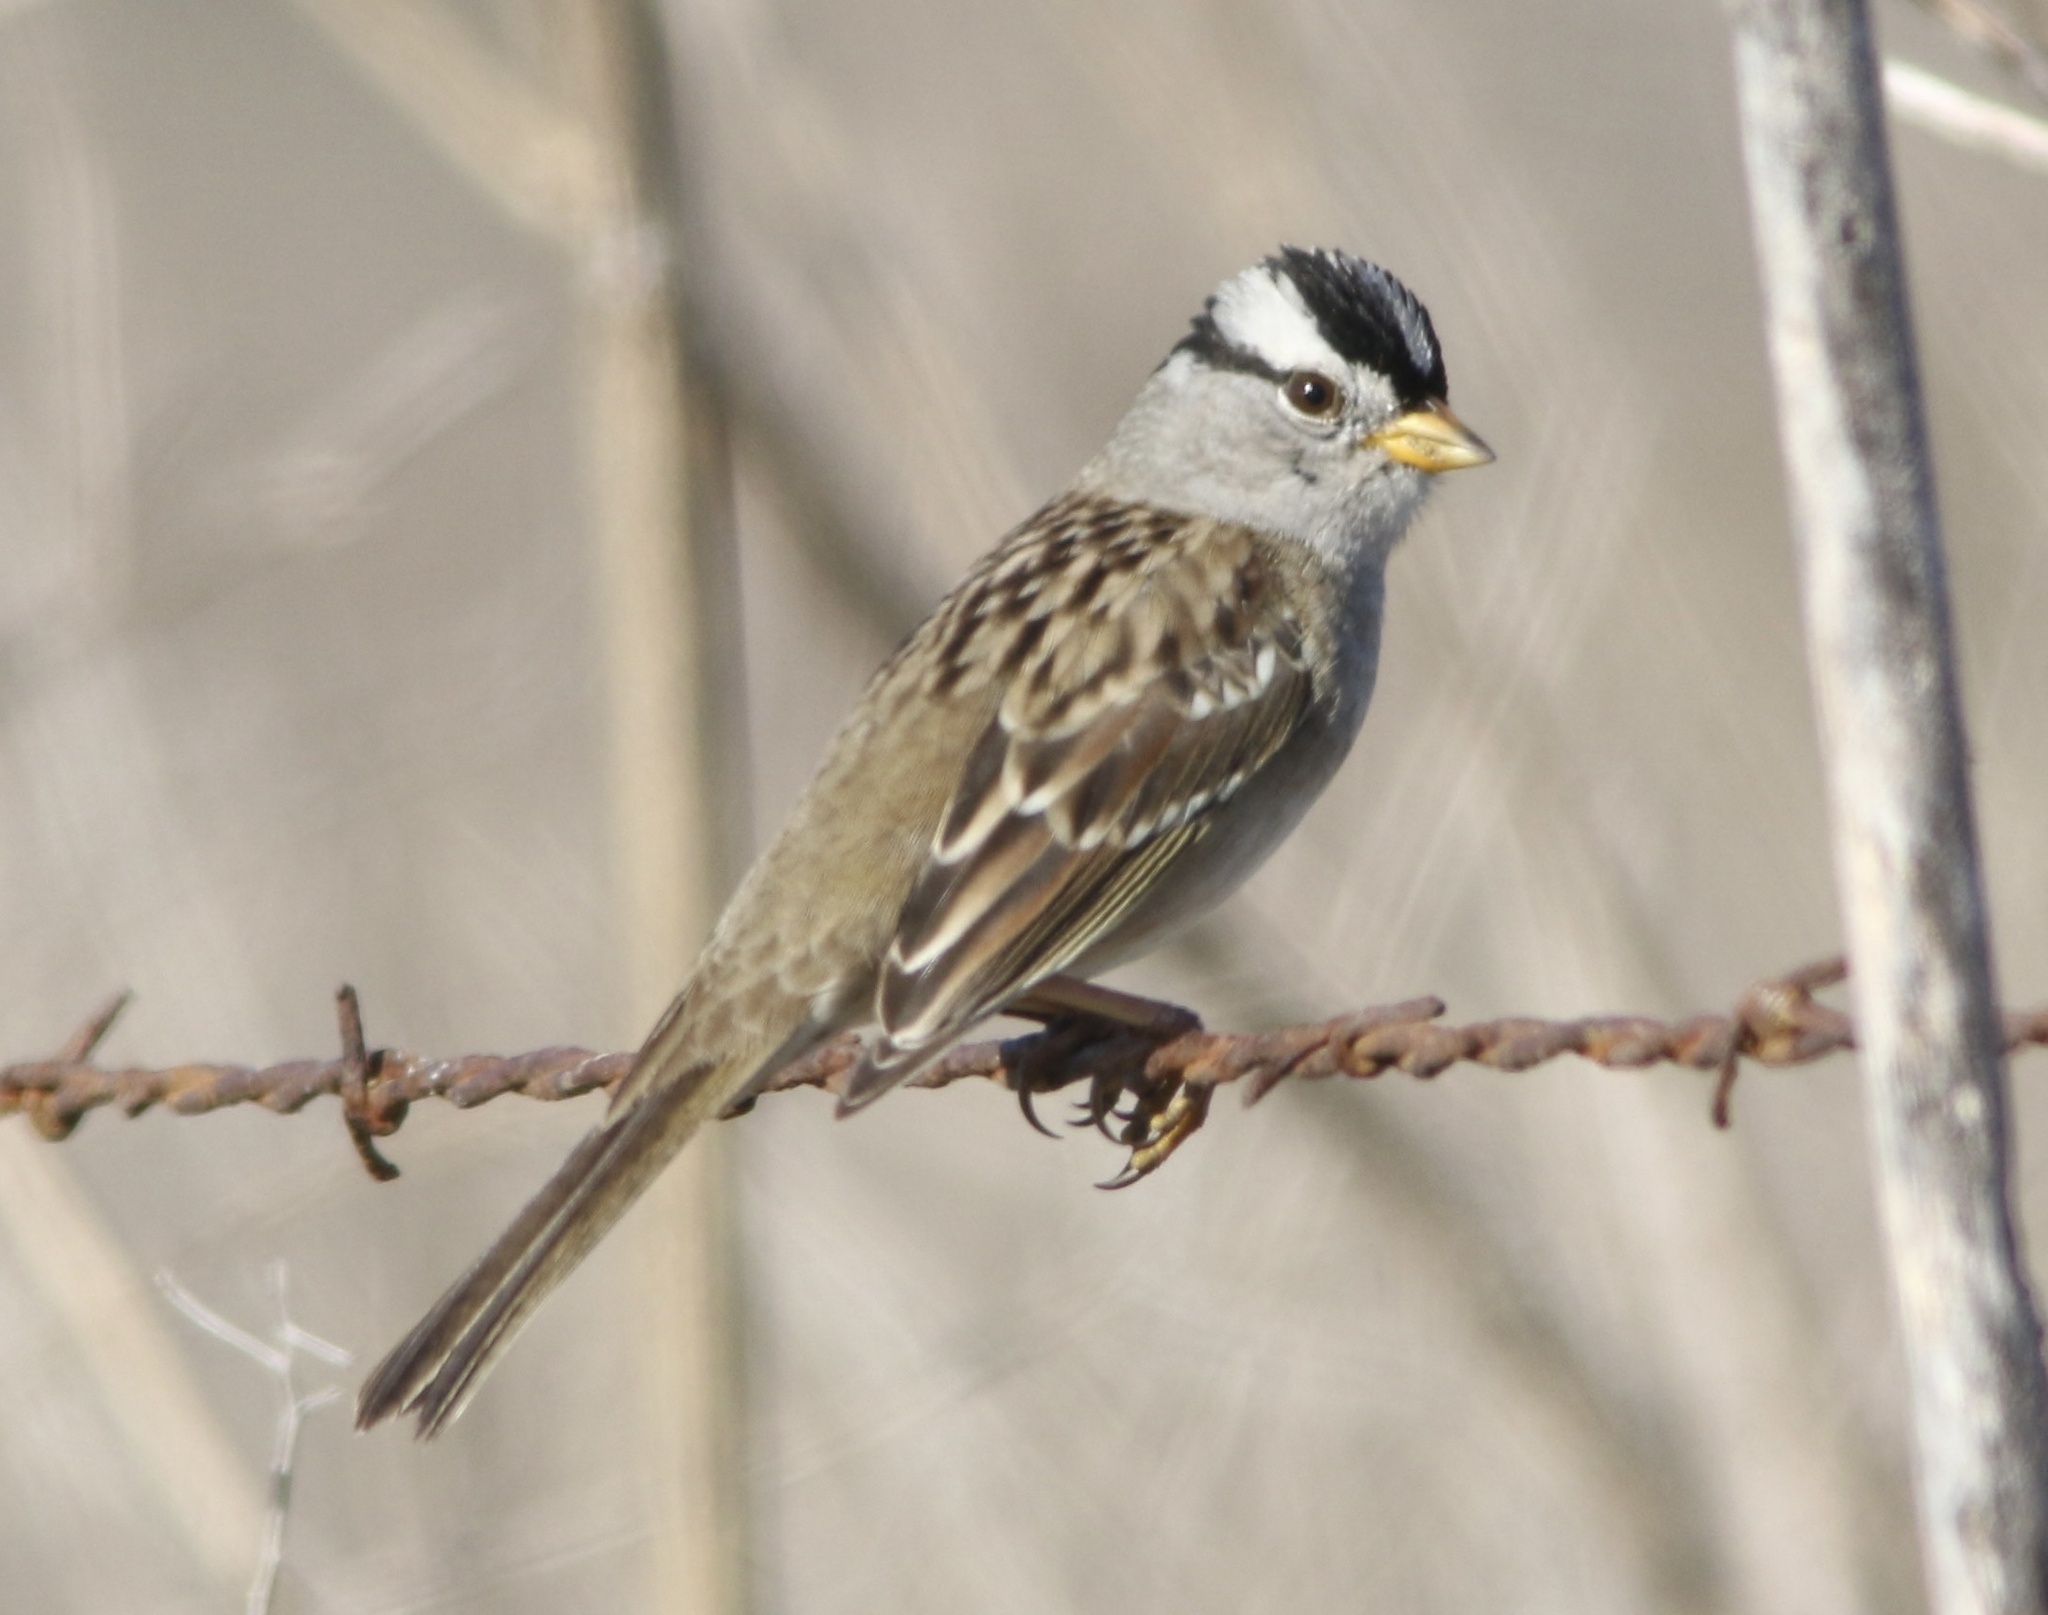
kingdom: Animalia
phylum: Chordata
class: Aves
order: Passeriformes
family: Passerellidae
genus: Zonotrichia
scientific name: Zonotrichia leucophrys
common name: White-crowned sparrow
